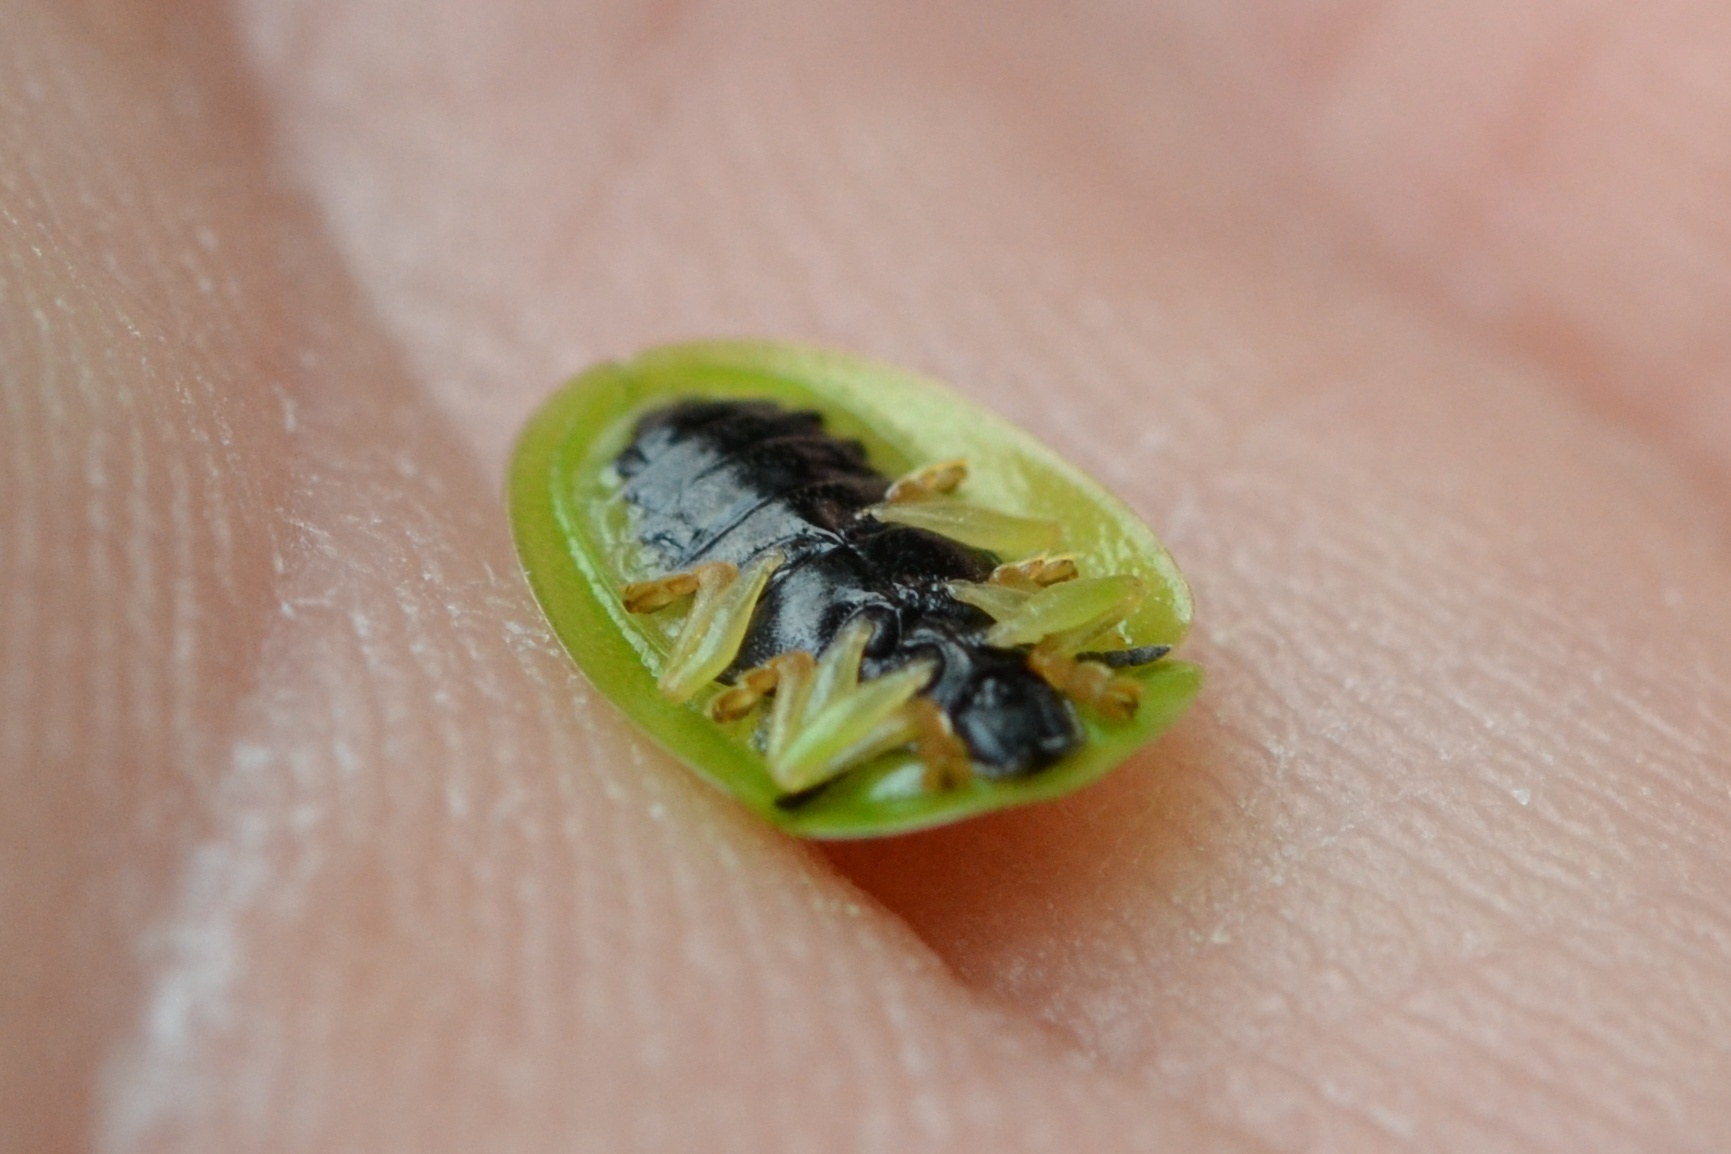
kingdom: Animalia
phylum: Arthropoda
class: Insecta
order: Coleoptera
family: Chrysomelidae
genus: Cassida
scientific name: Cassida viridis
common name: Green tortoise beetle
